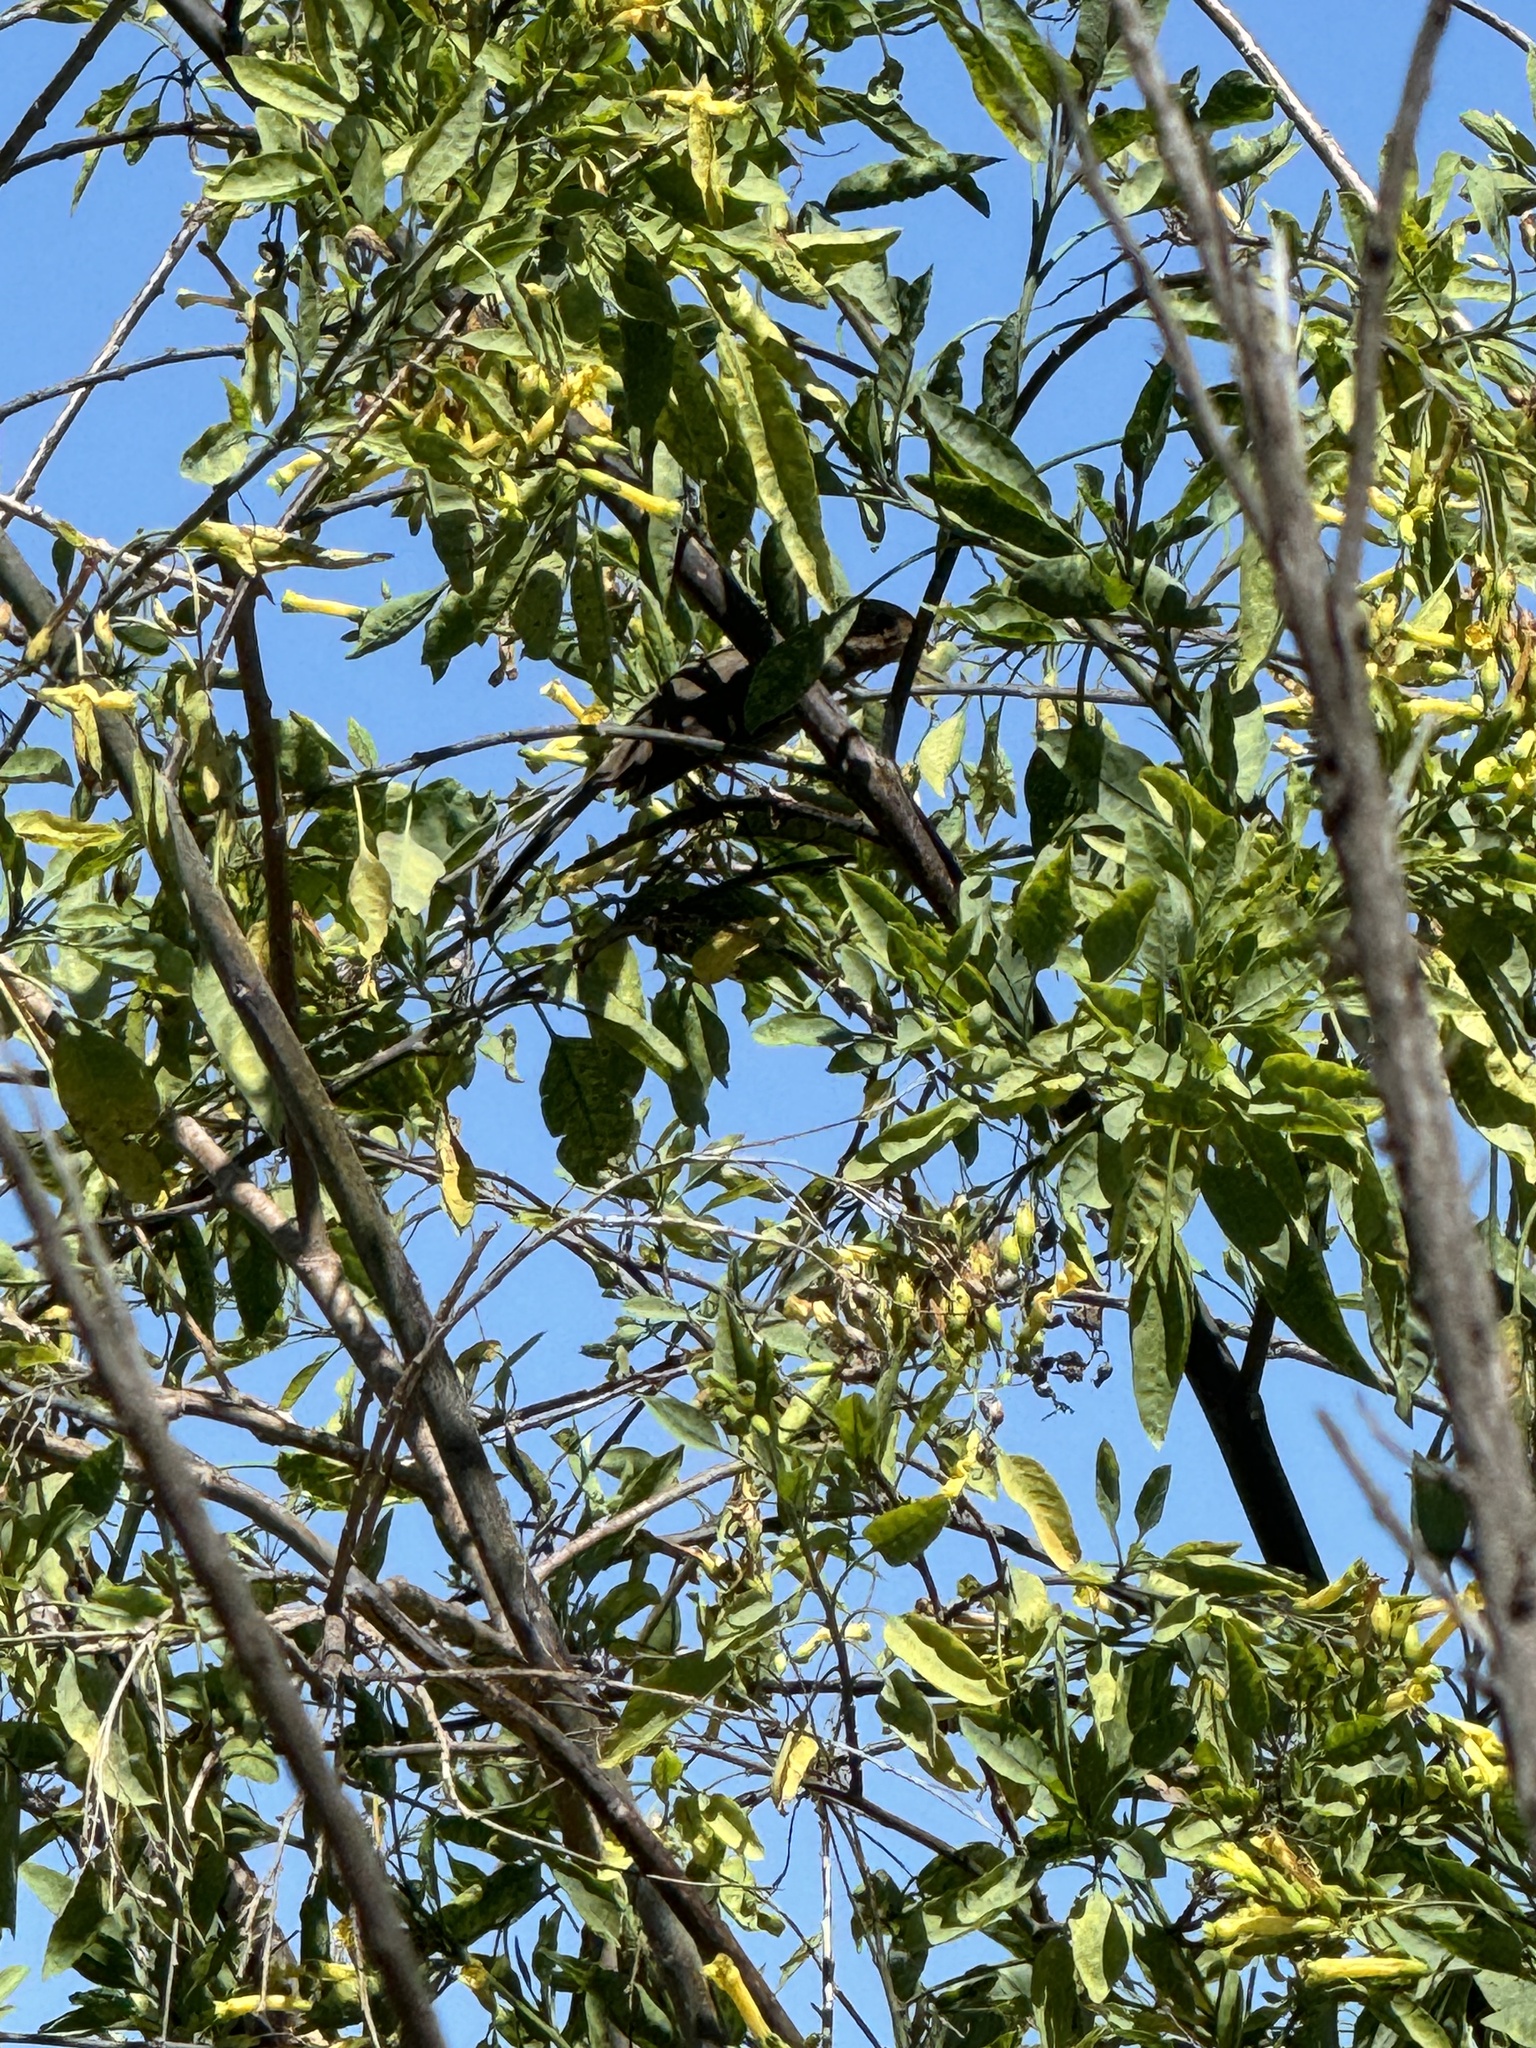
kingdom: Animalia
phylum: Chordata
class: Aves
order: Passeriformes
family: Passerellidae
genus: Melozone
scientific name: Melozone crissalis
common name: California towhee
